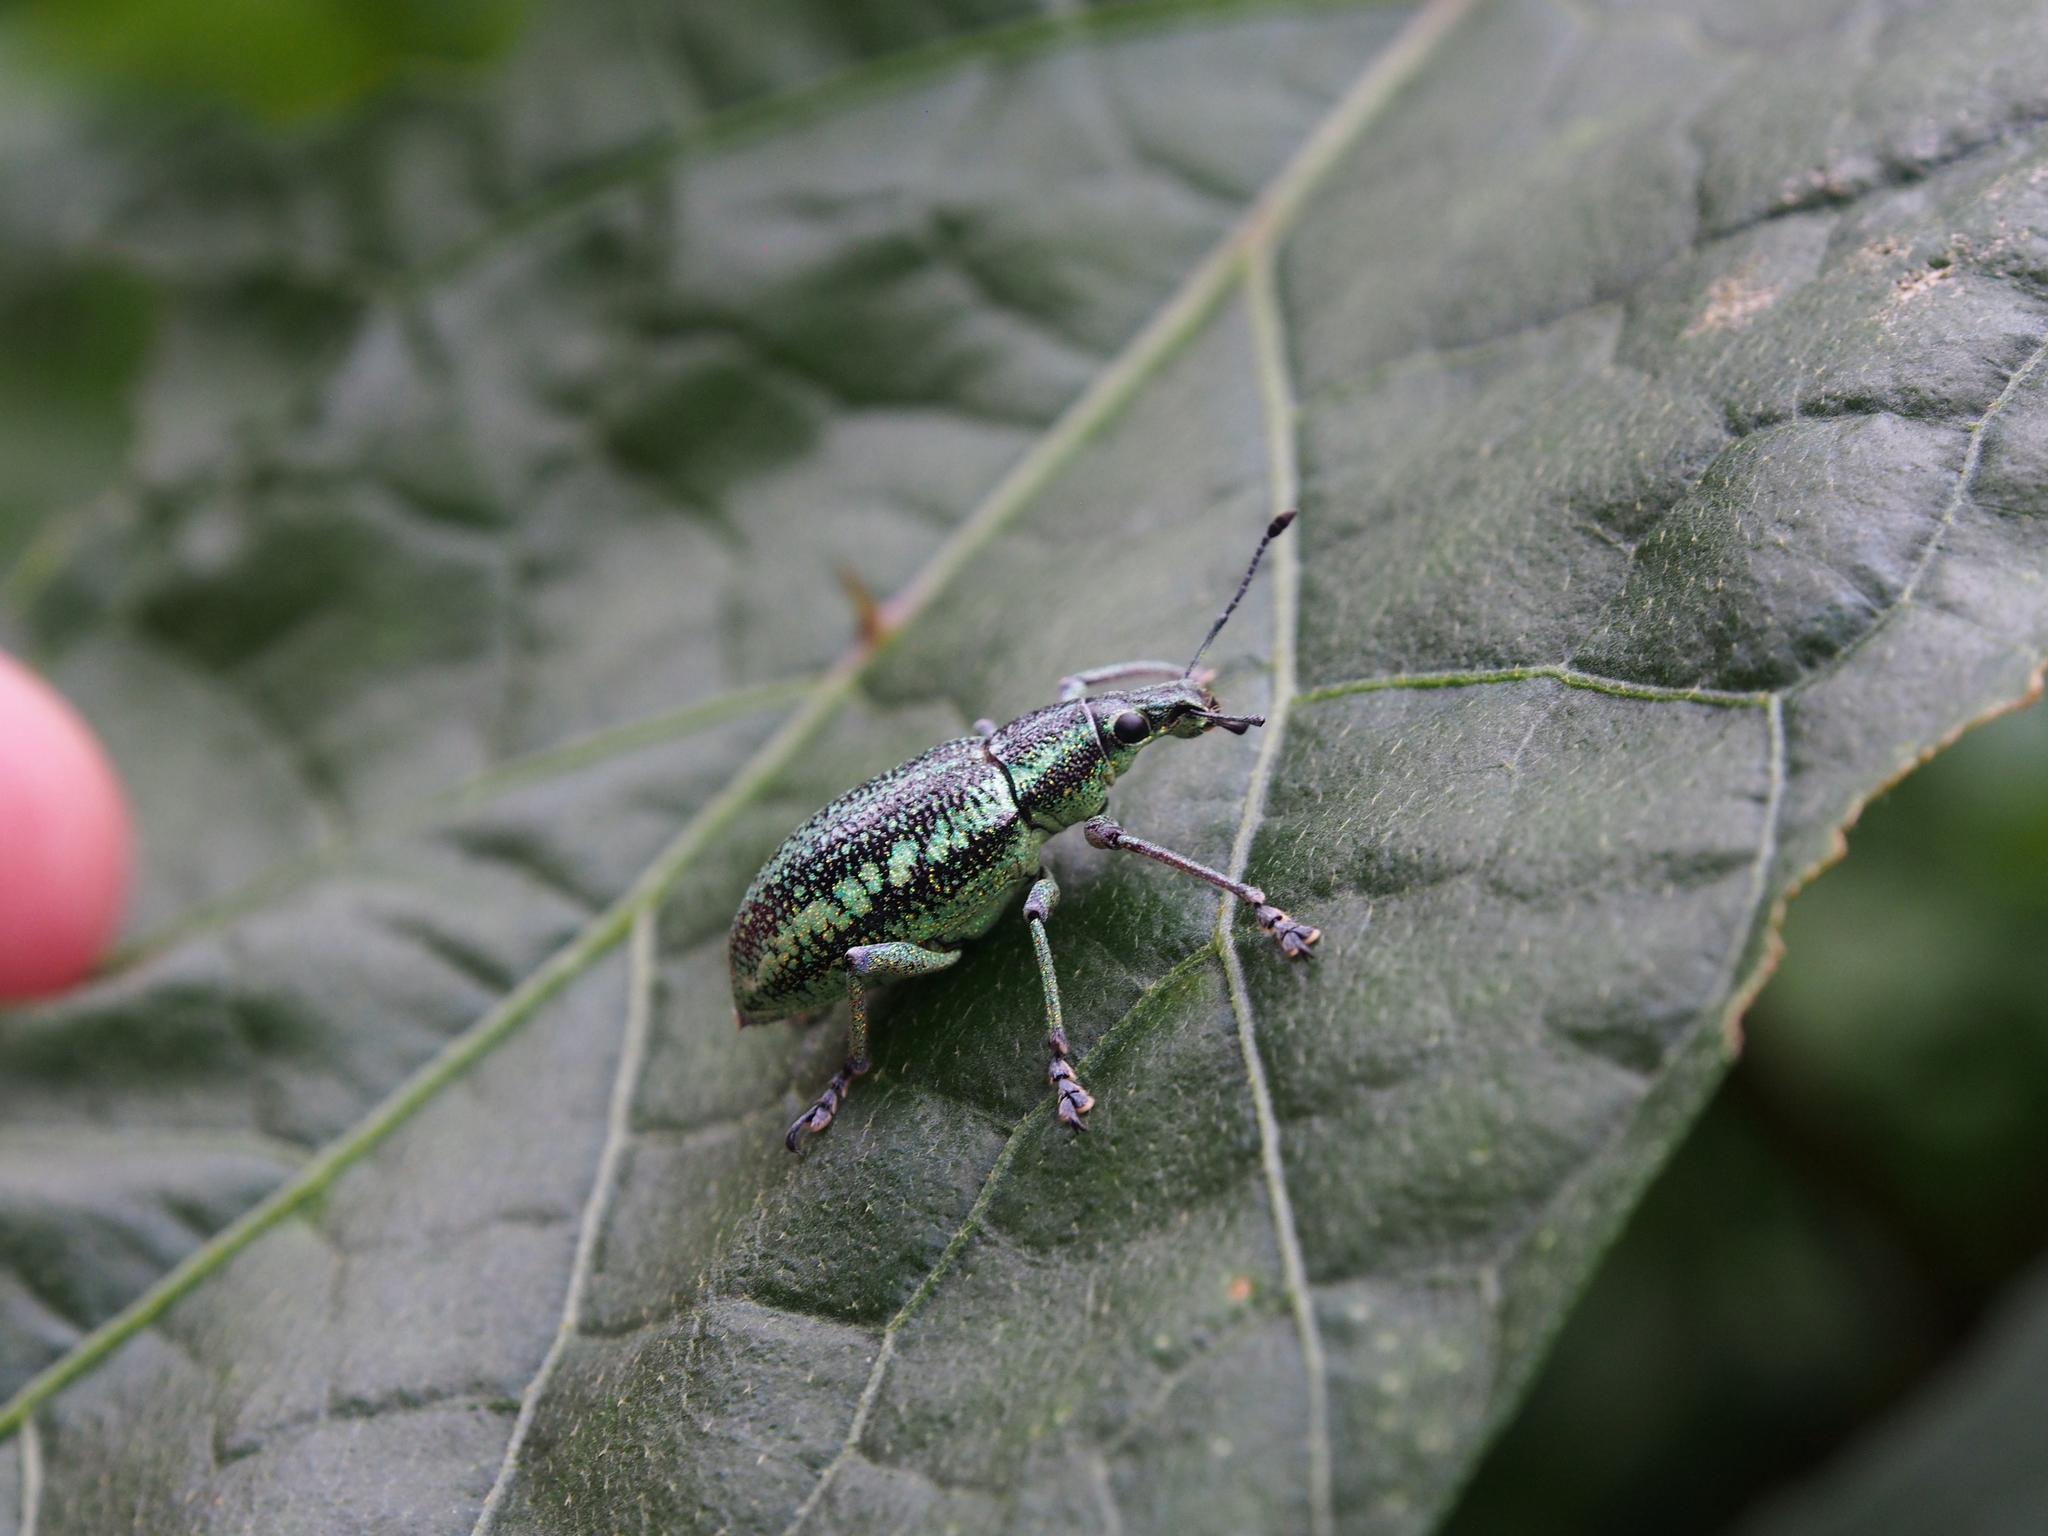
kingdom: Animalia
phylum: Arthropoda
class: Insecta
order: Coleoptera
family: Curculionidae
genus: Exophthalmus
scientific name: Exophthalmus sulcicrus
